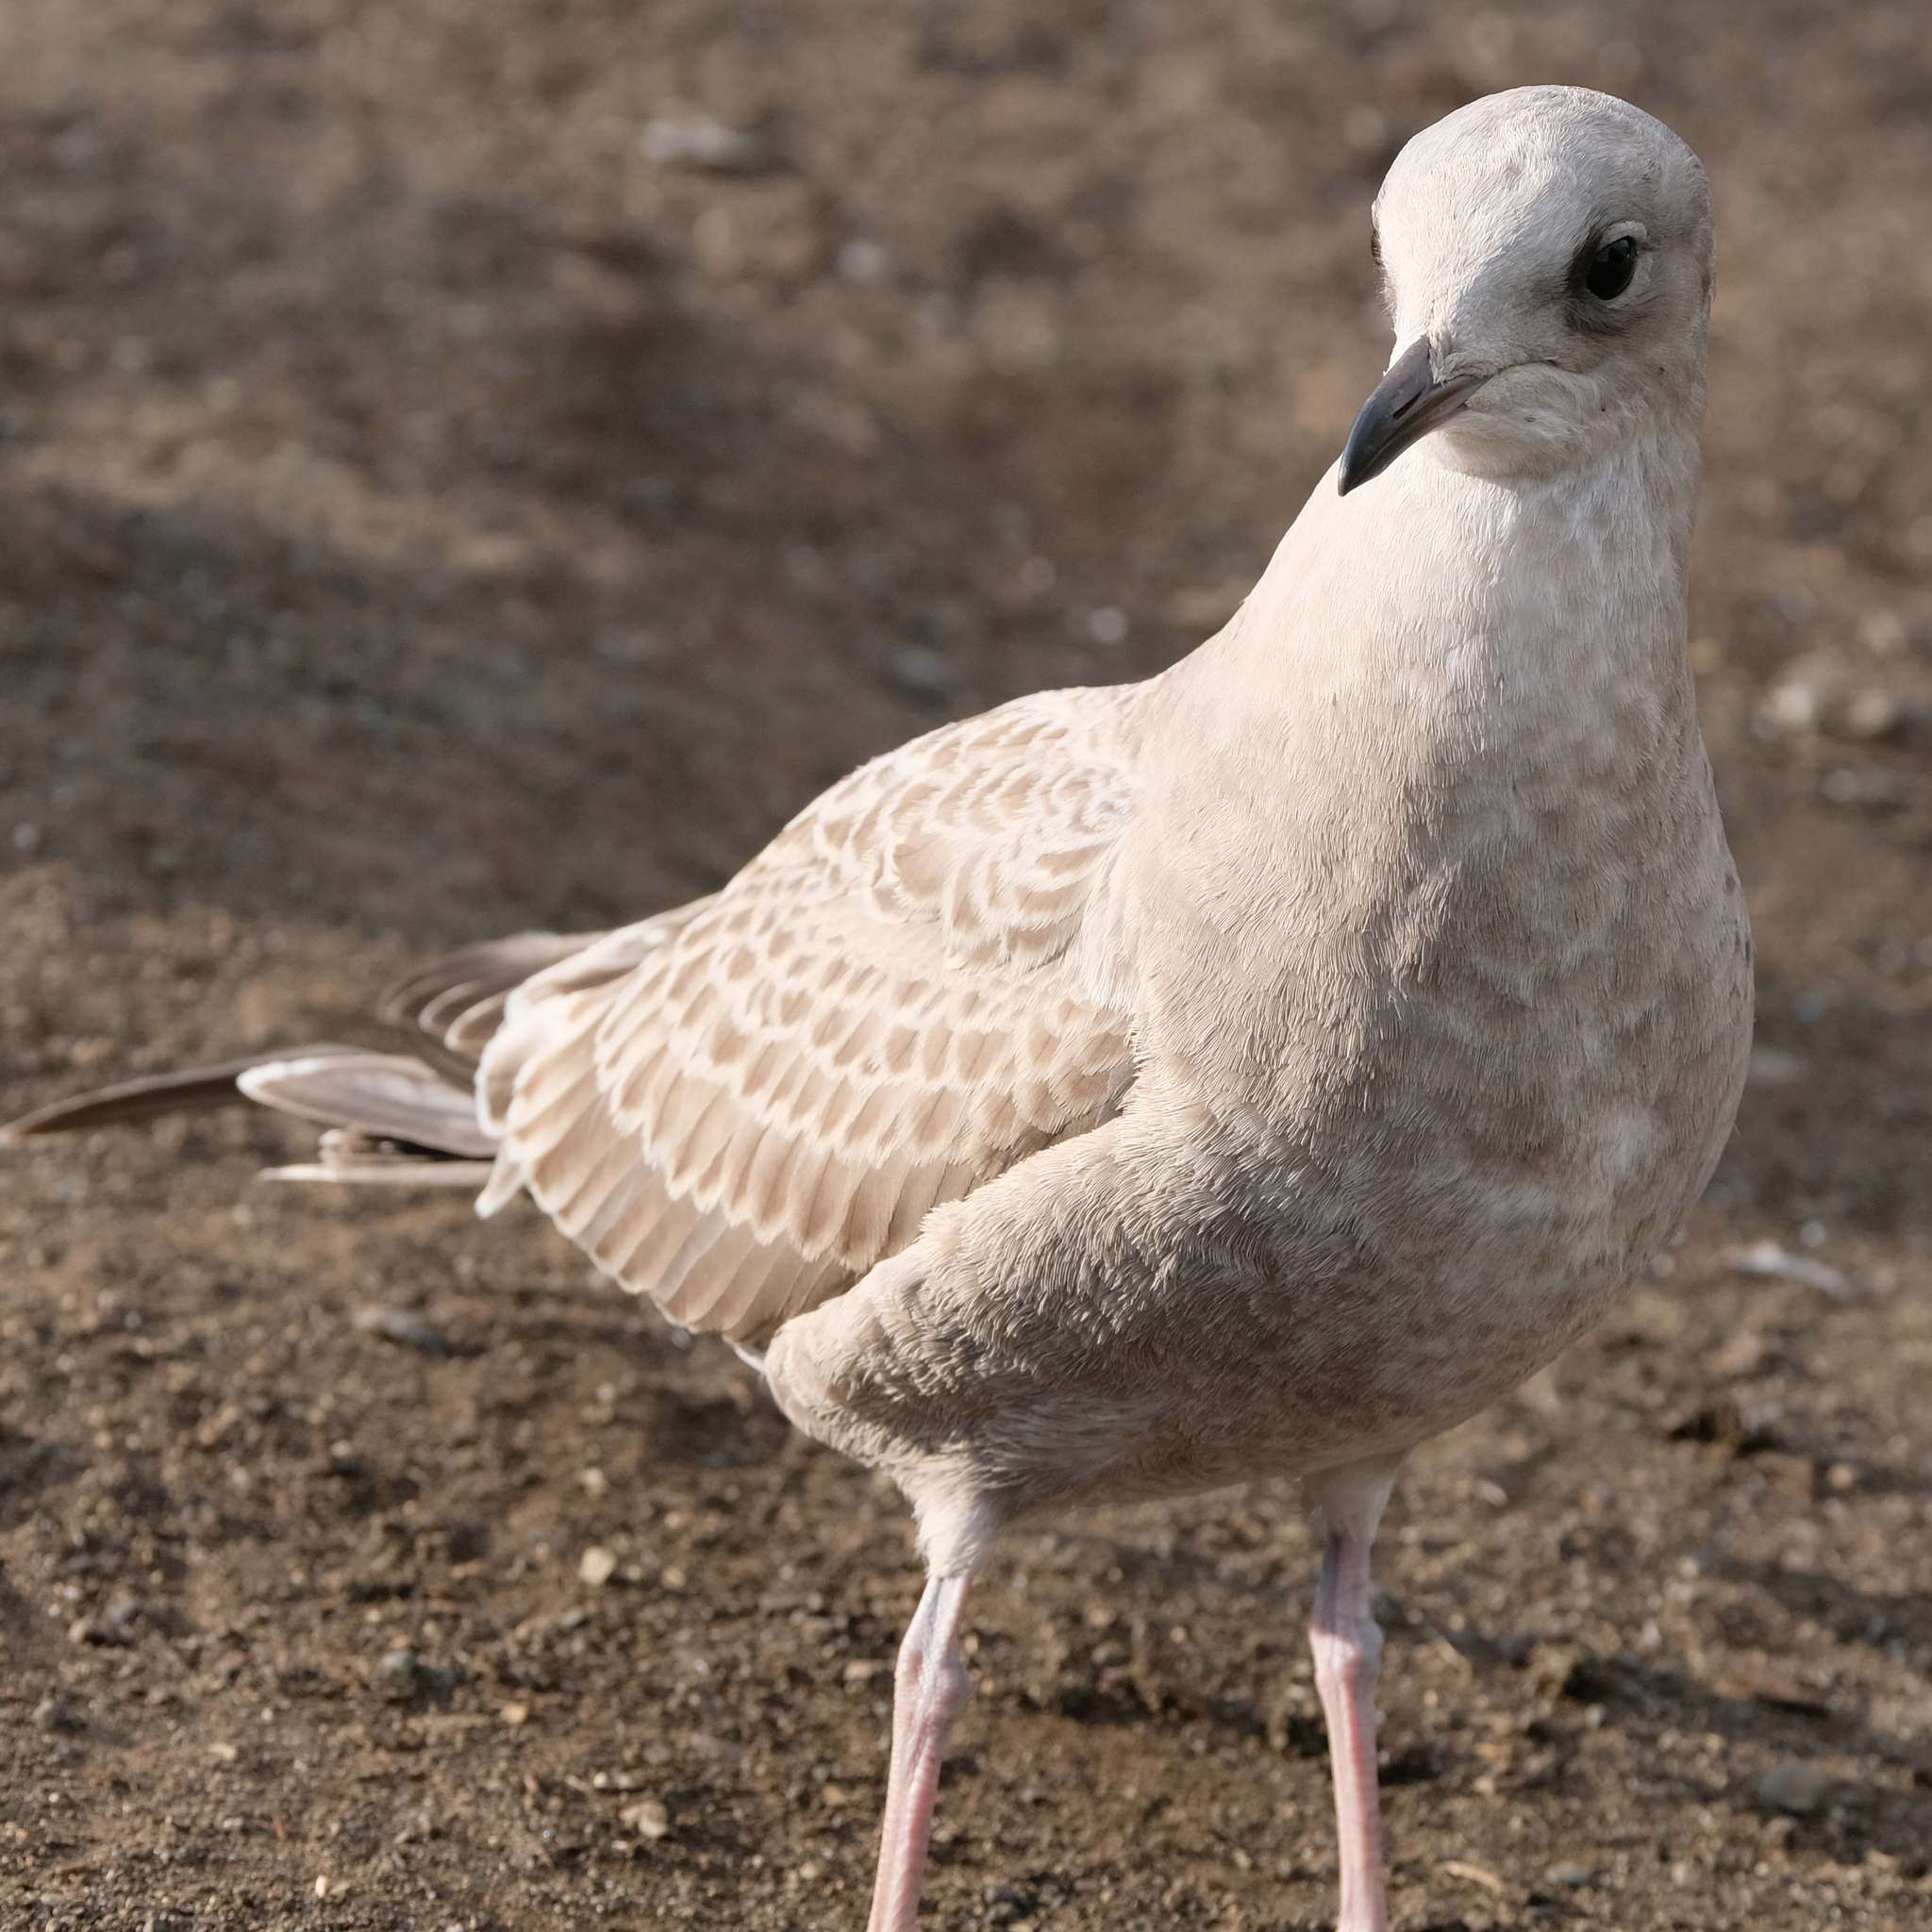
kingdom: Animalia
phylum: Chordata
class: Aves
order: Charadriiformes
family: Laridae
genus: Larus
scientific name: Larus brachyrhynchus
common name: Short-billed gull
